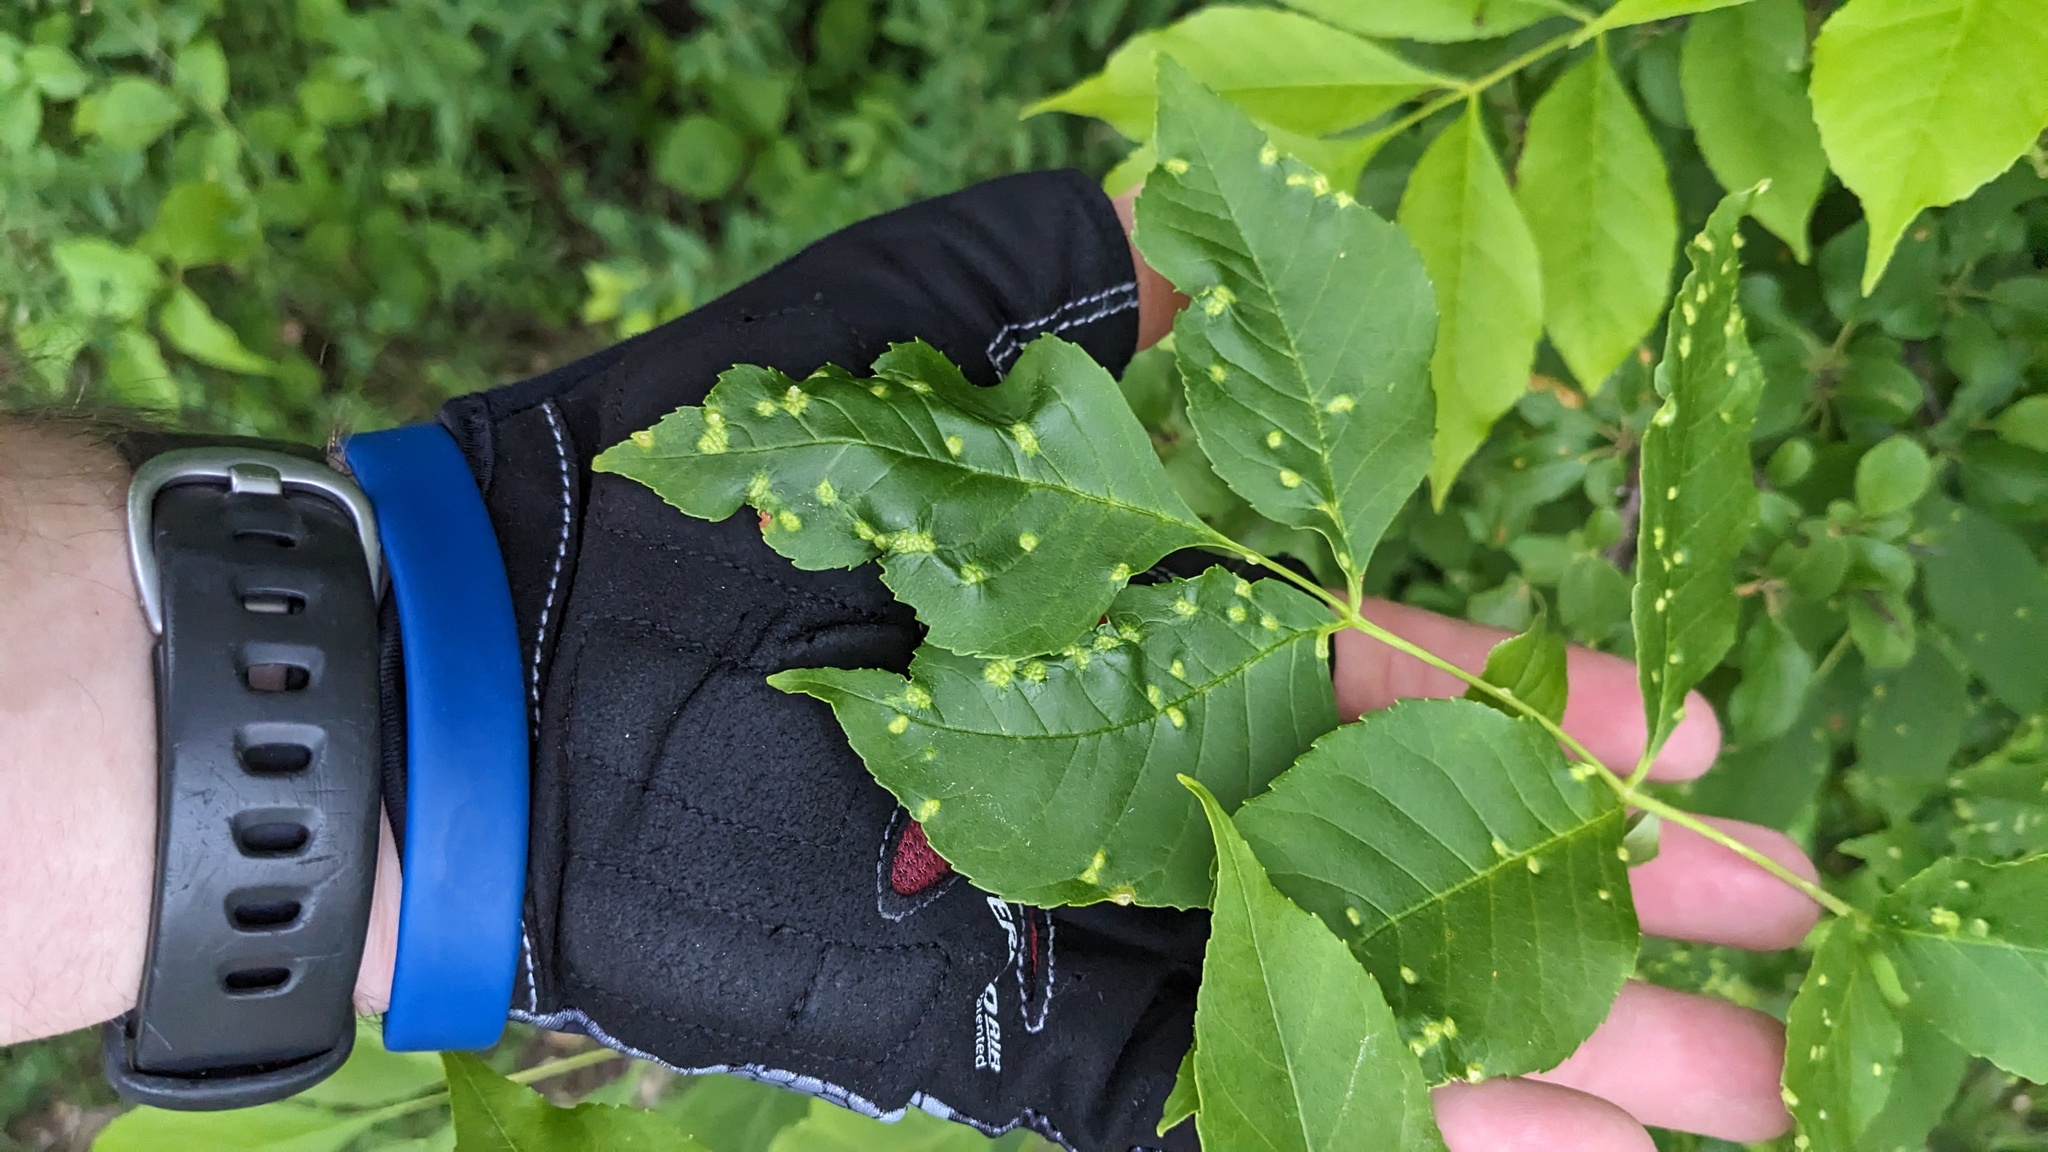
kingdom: Animalia
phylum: Arthropoda
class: Arachnida
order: Trombidiformes
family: Eriophyidae
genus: Aceria
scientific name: Aceria fraxinicola
